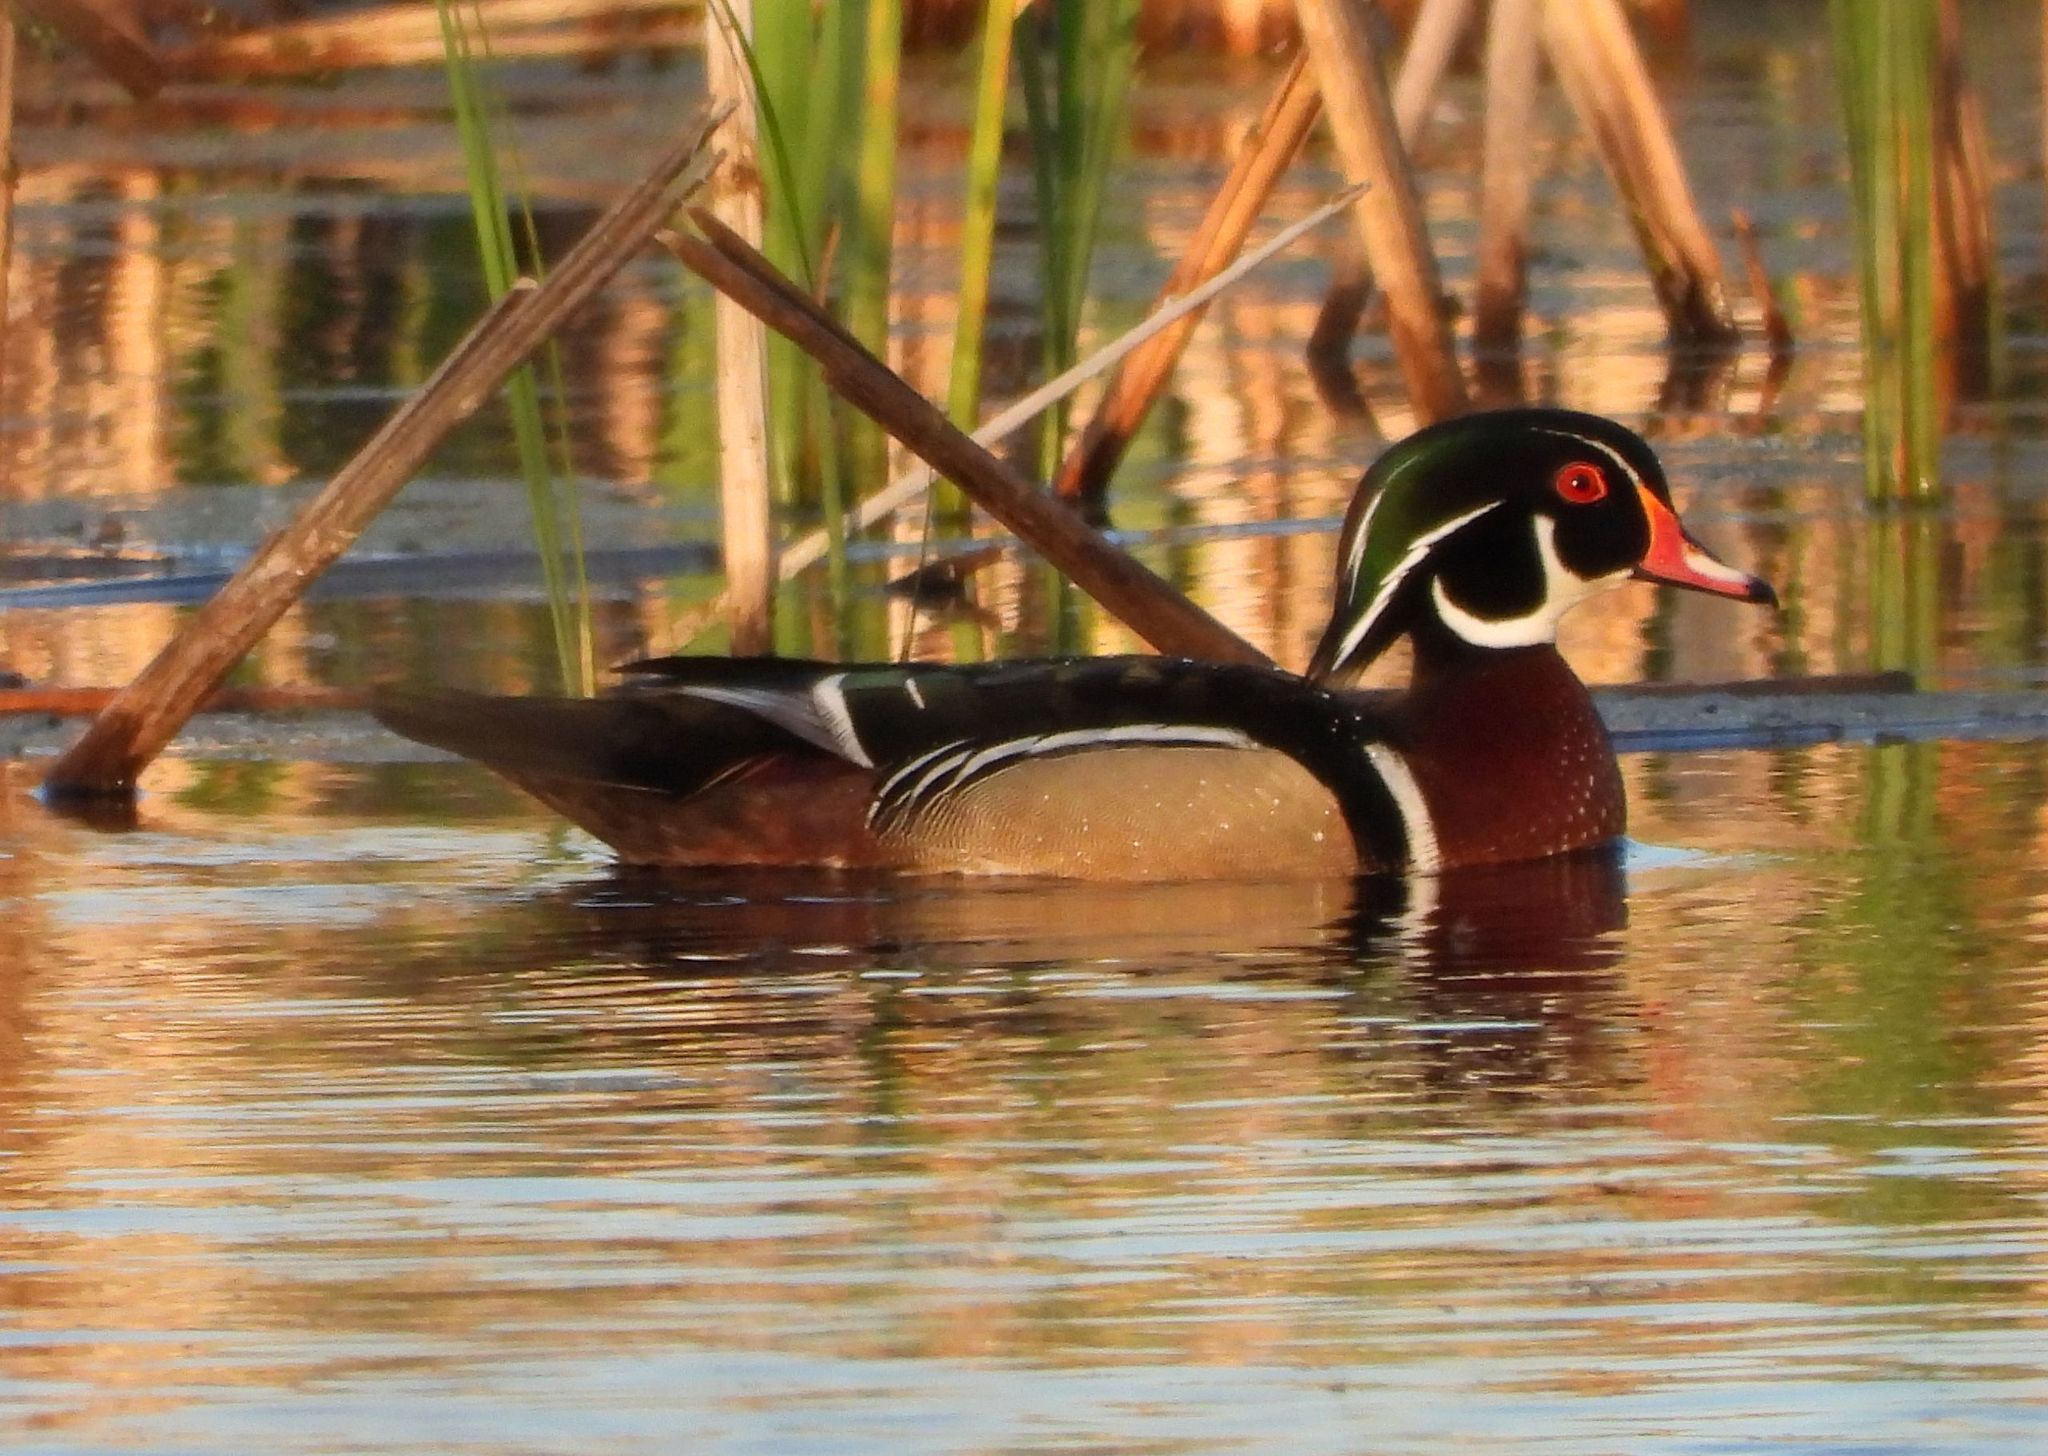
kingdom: Animalia
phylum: Chordata
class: Aves
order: Anseriformes
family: Anatidae
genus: Aix
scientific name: Aix sponsa
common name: Wood duck
